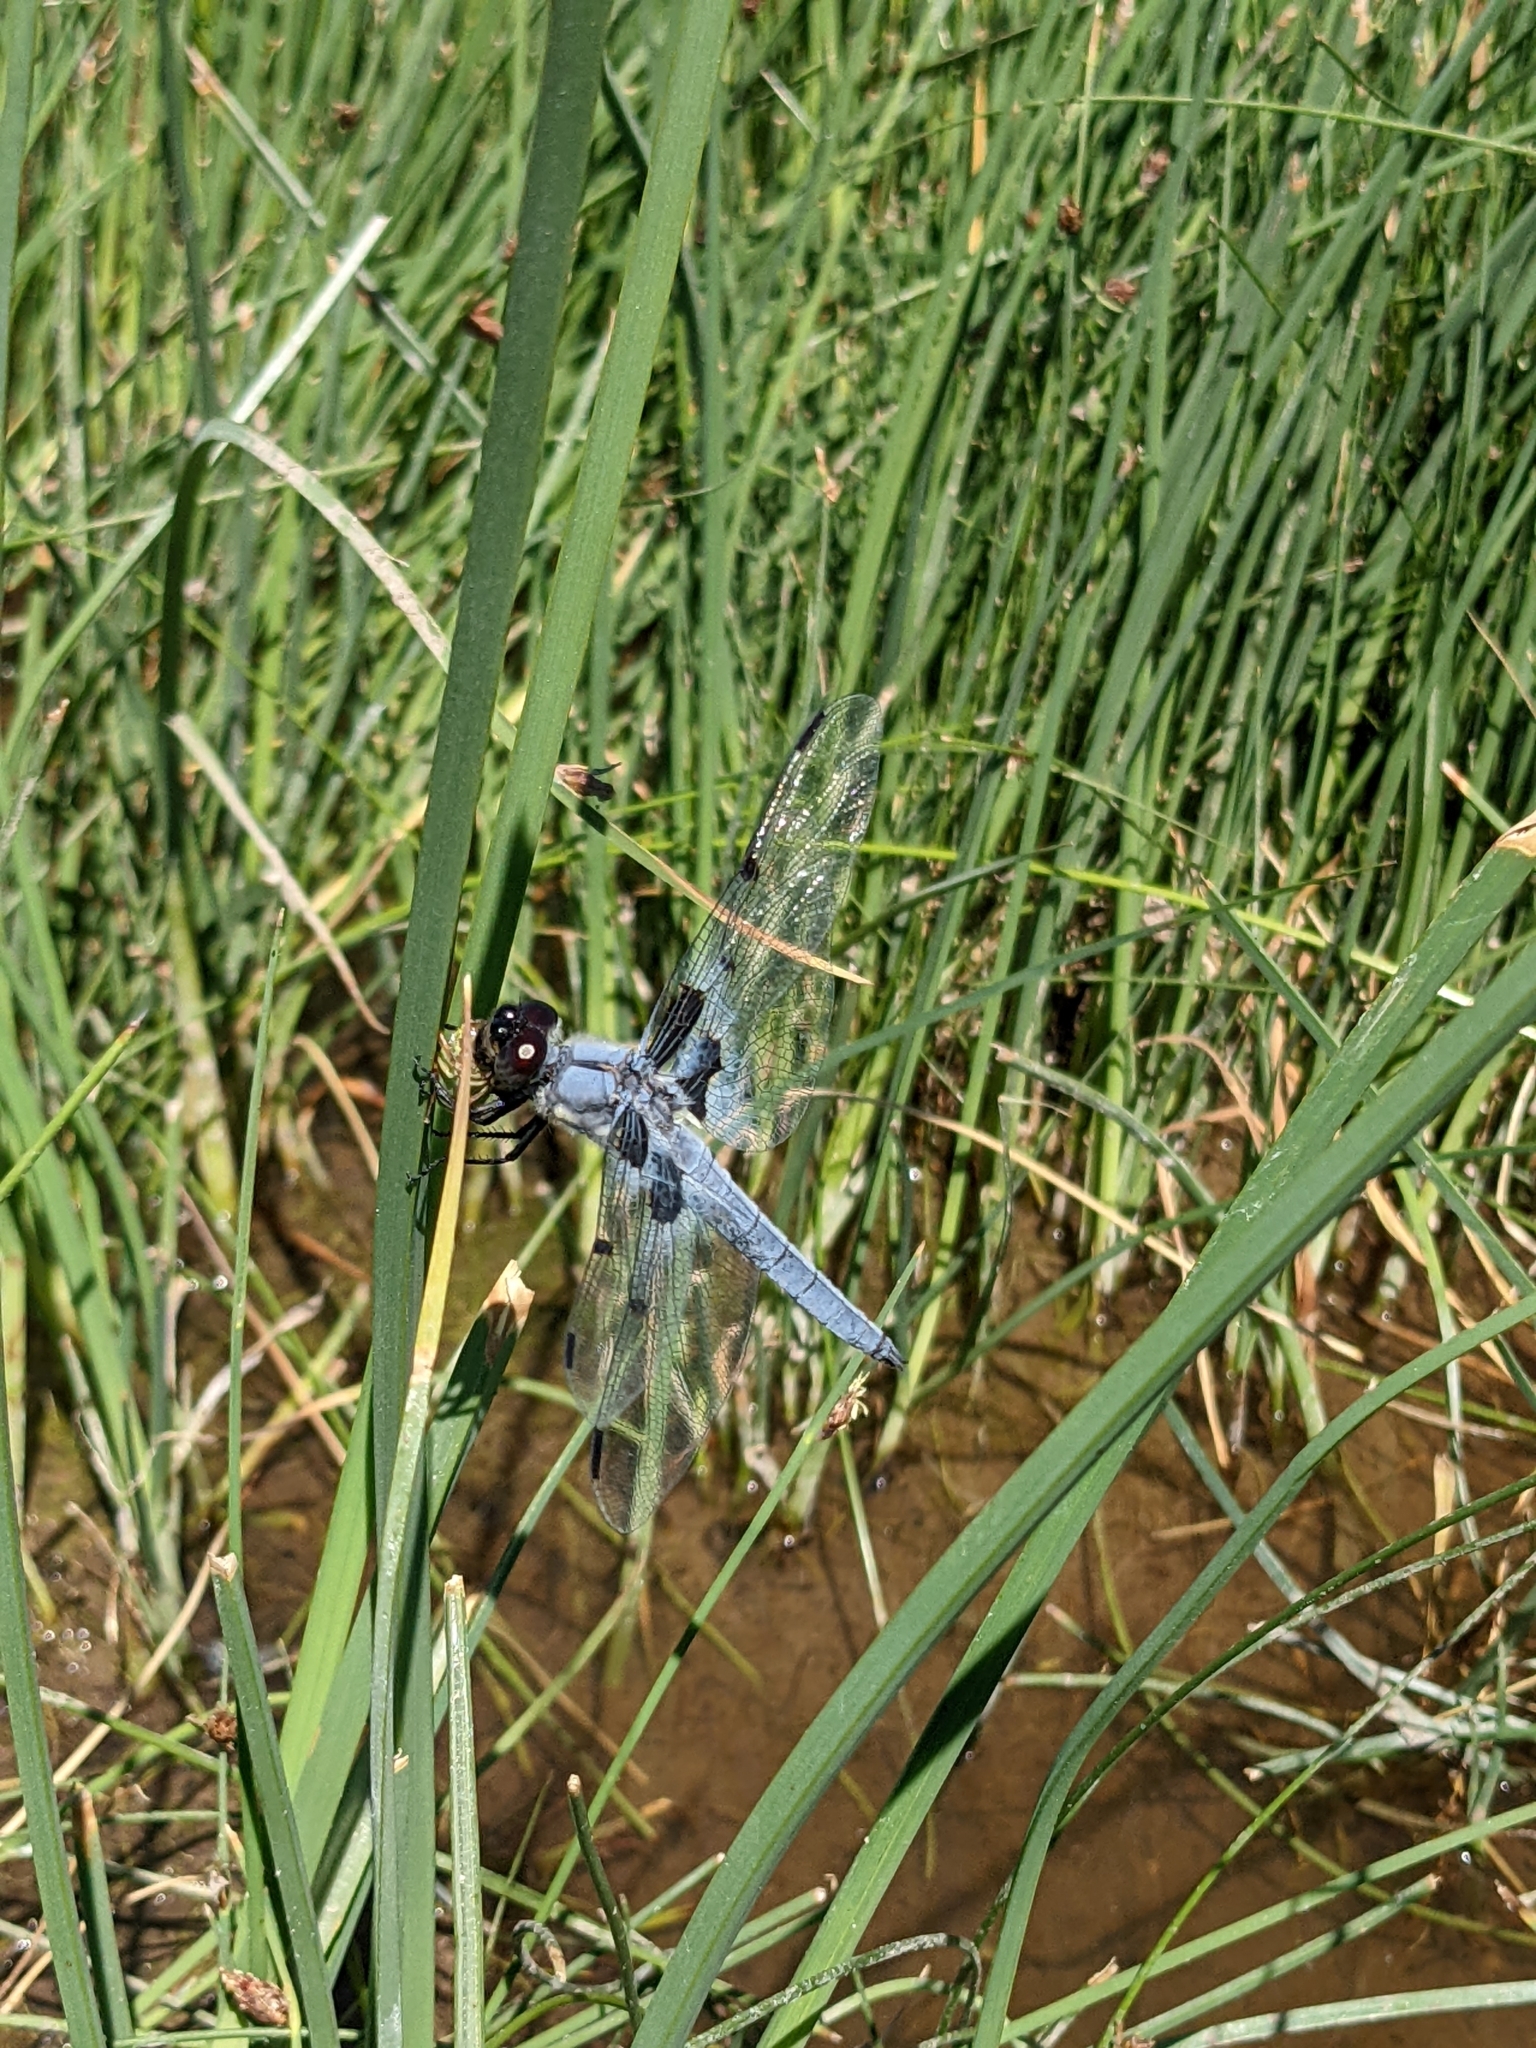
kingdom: Animalia
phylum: Arthropoda
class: Insecta
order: Odonata
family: Libellulidae
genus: Libellula
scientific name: Libellula nodisticta
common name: Hoary skimmer
